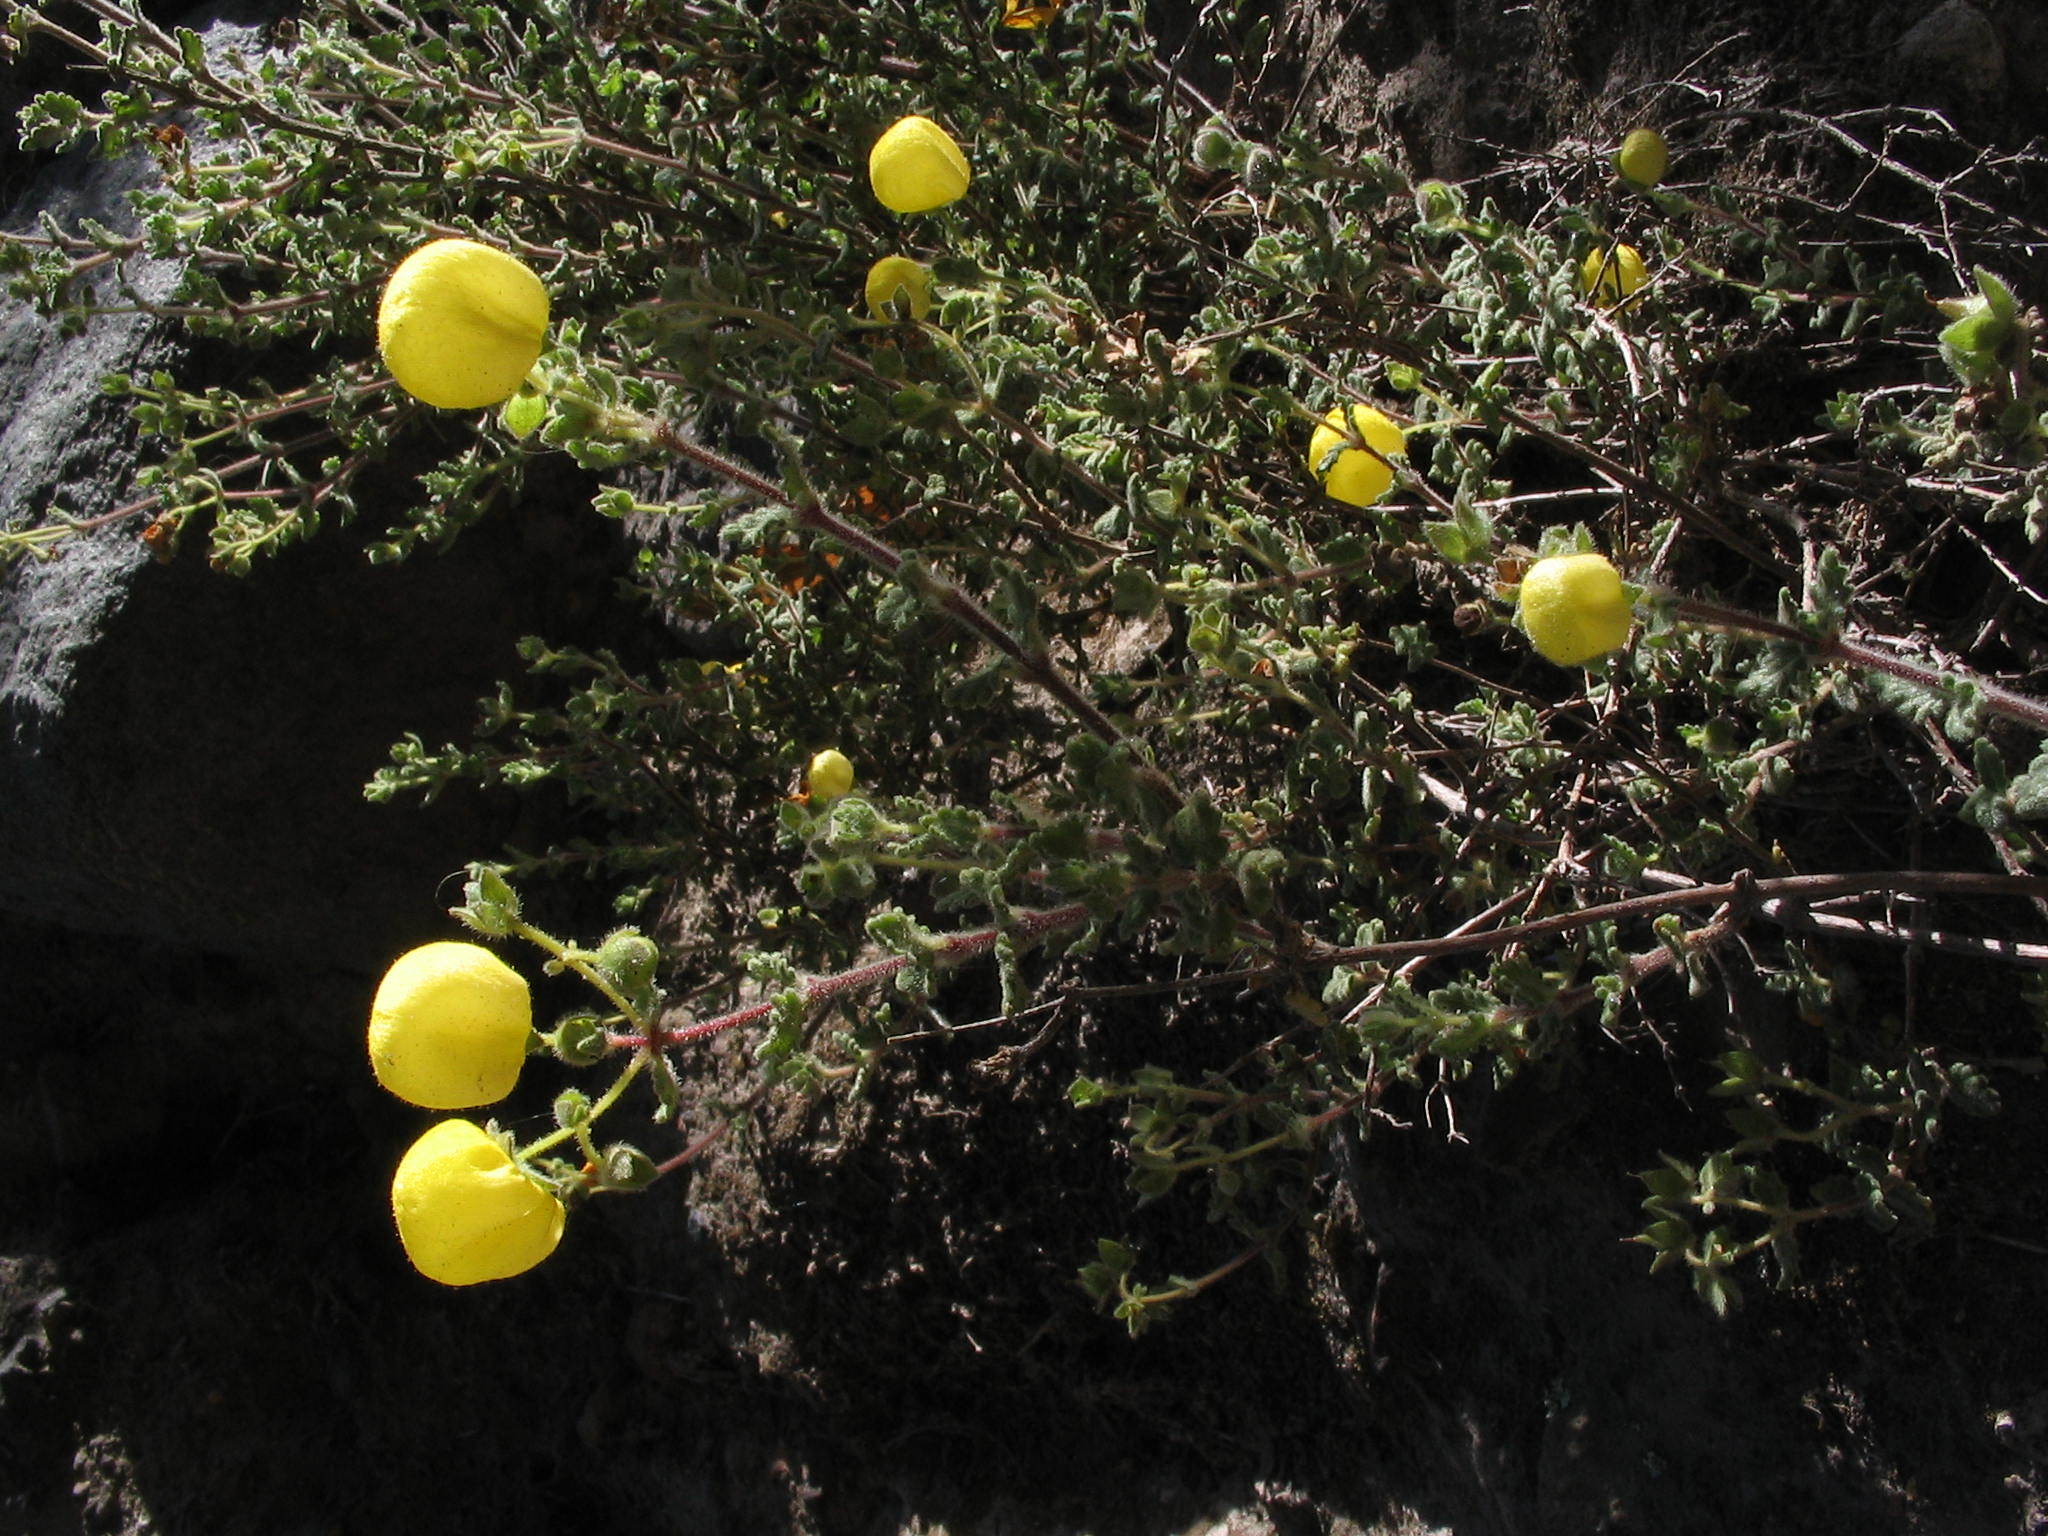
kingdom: Plantae
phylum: Tracheophyta
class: Magnoliopsida
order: Lamiales
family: Calceolariaceae
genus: Calceolaria
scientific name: Calceolaria inamoena
